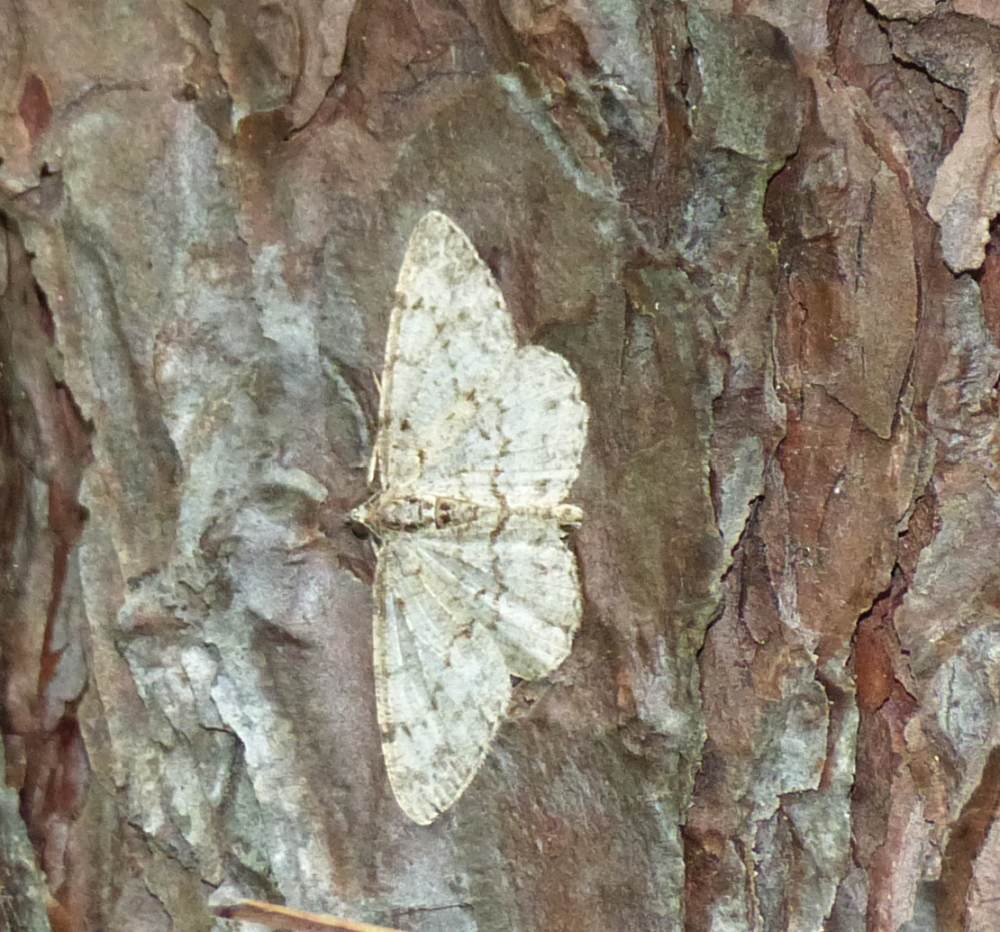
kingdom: Animalia
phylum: Arthropoda
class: Insecta
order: Lepidoptera
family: Geometridae
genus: Protoboarmia
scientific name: Protoboarmia porcelaria
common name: Porcelain gray
